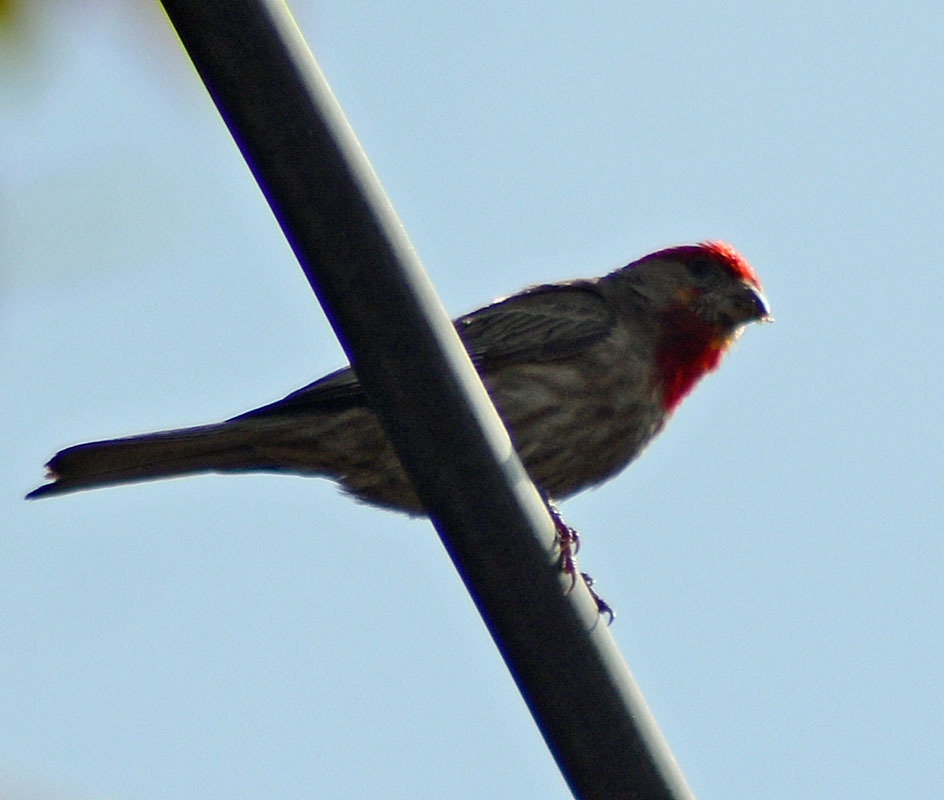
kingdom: Animalia
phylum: Chordata
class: Aves
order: Passeriformes
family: Fringillidae
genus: Haemorhous
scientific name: Haemorhous mexicanus
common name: House finch
